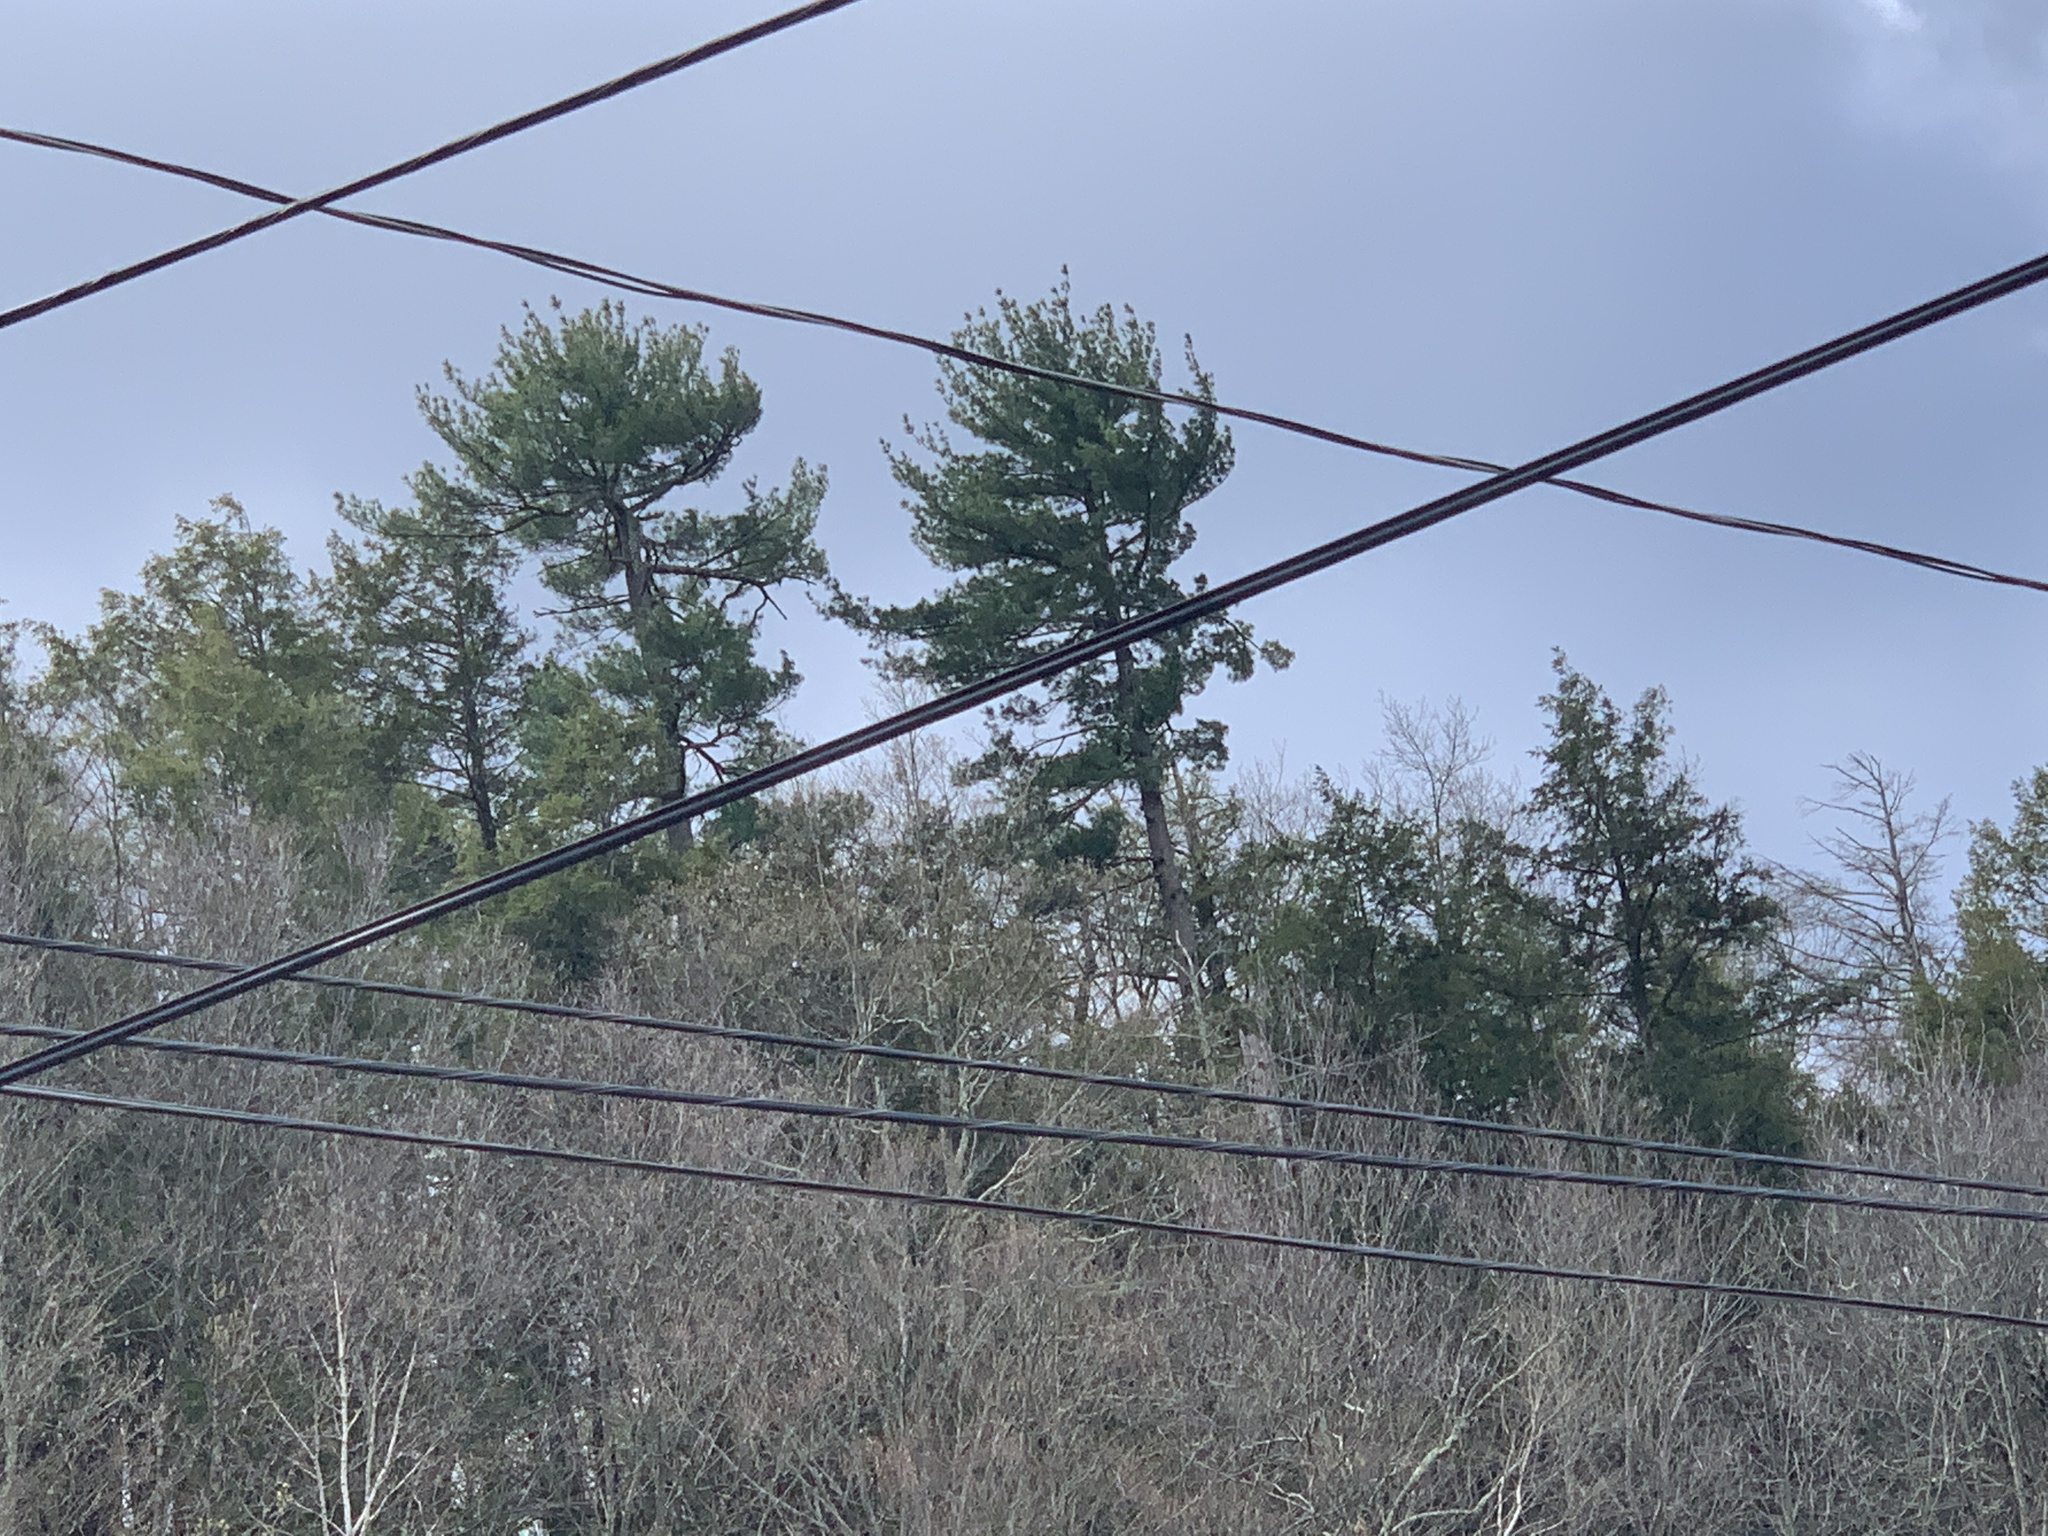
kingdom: Plantae
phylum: Tracheophyta
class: Pinopsida
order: Pinales
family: Pinaceae
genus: Tsuga
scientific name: Tsuga canadensis
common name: Eastern hemlock
